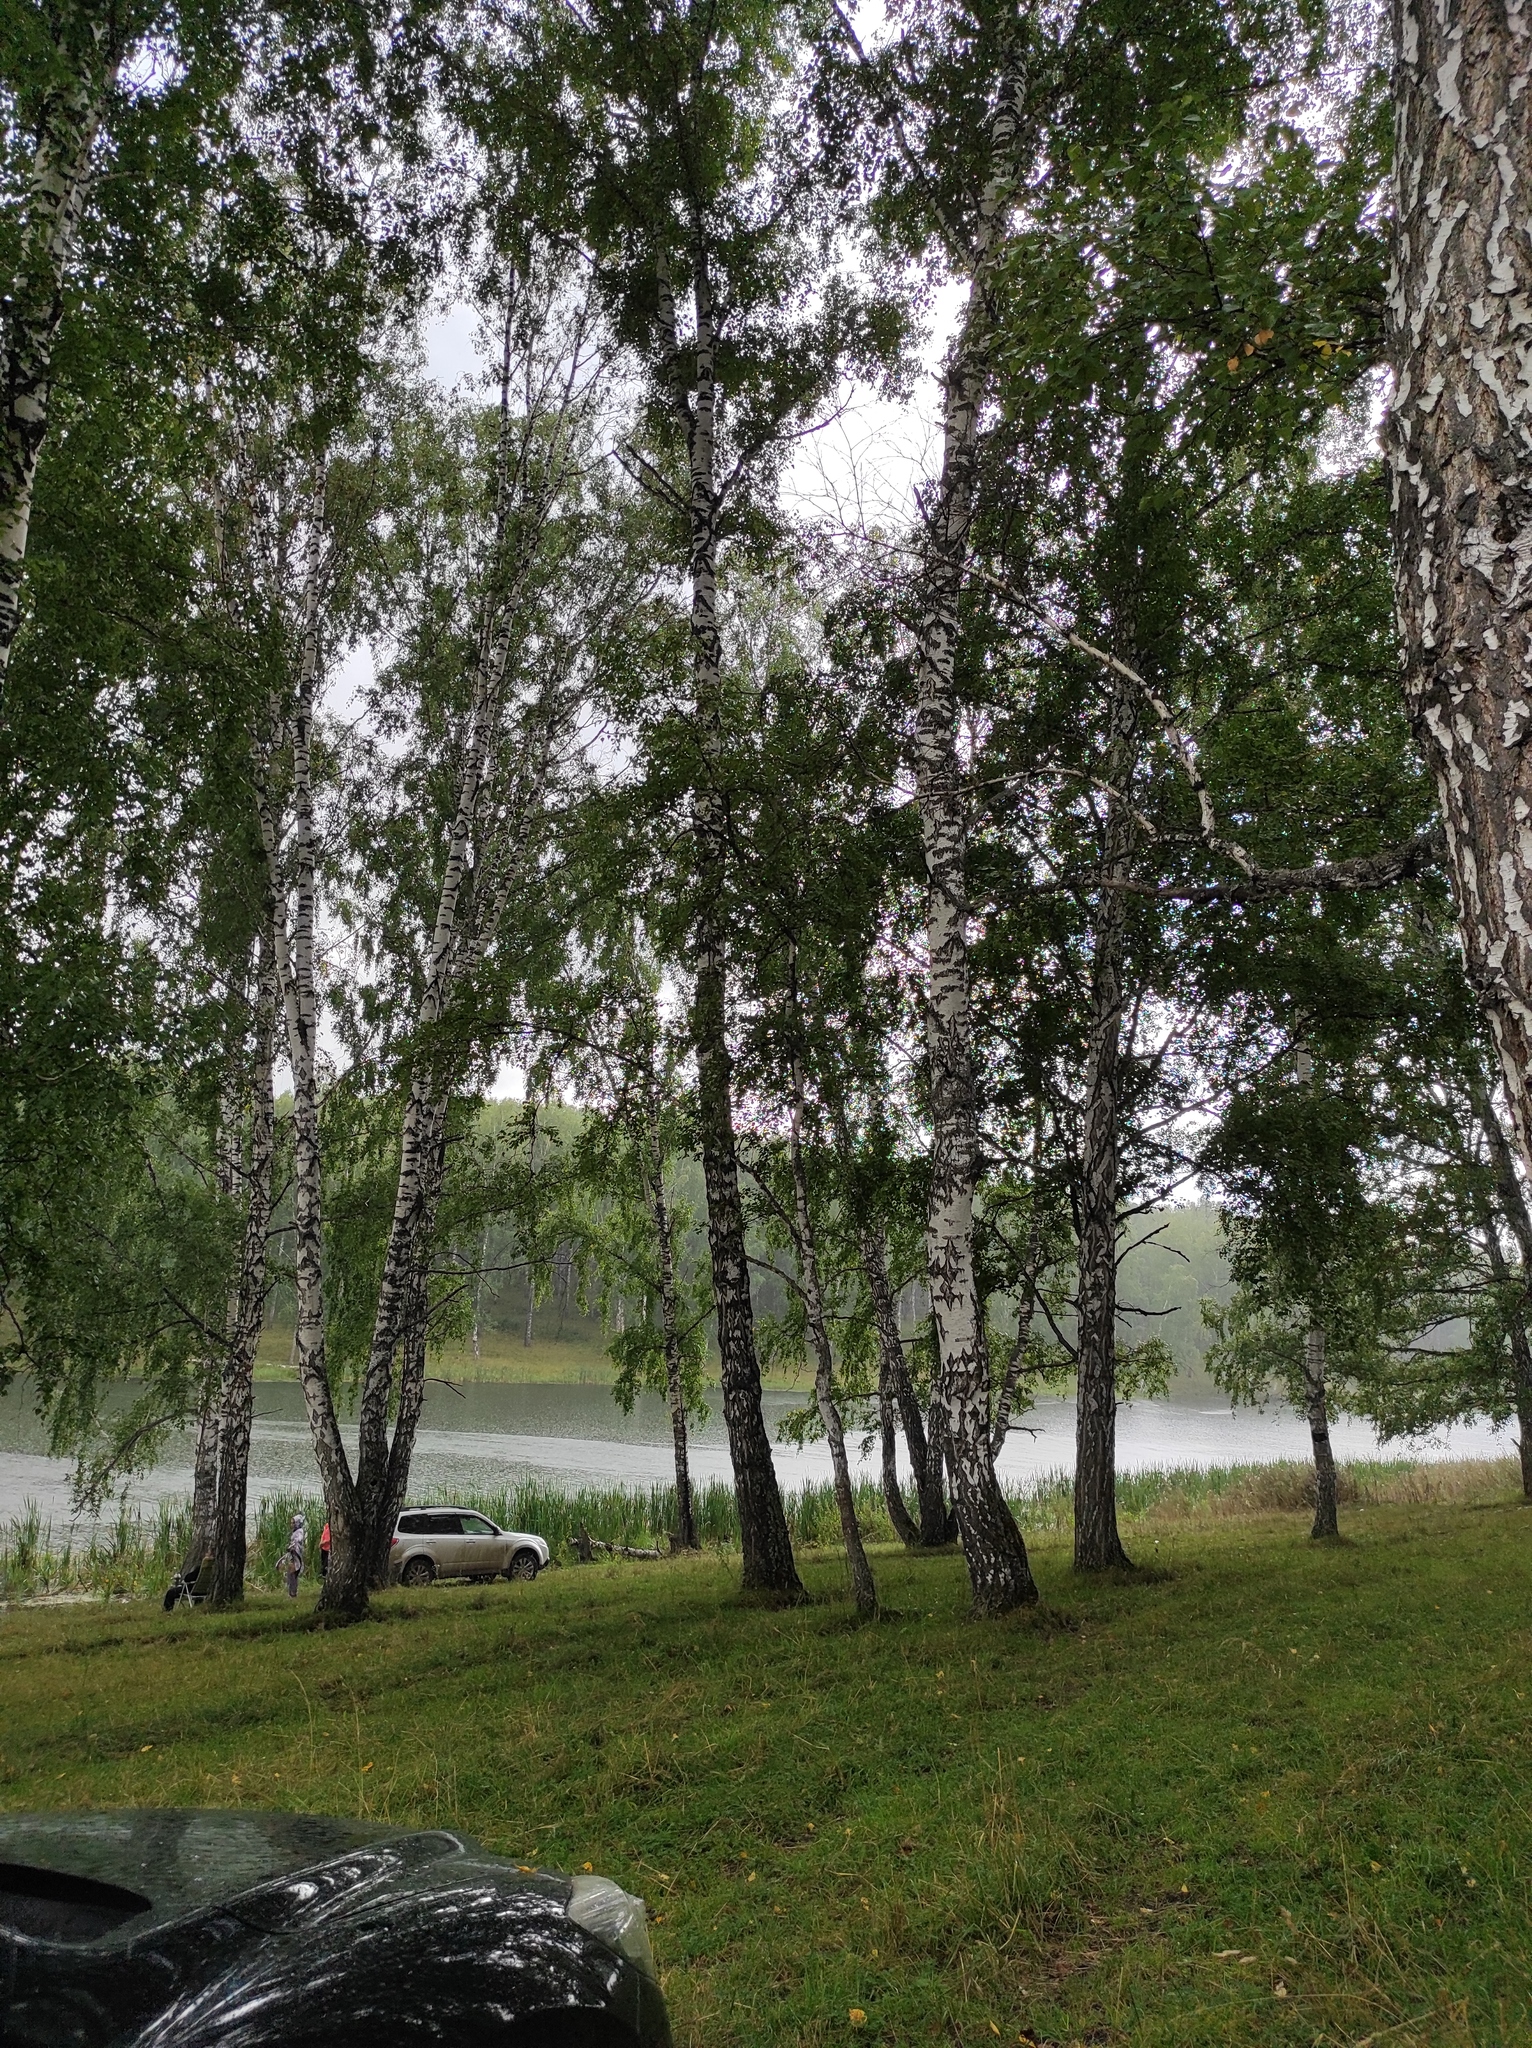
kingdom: Plantae
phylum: Tracheophyta
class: Magnoliopsida
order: Fagales
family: Betulaceae
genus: Betula
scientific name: Betula pendula
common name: Silver birch
